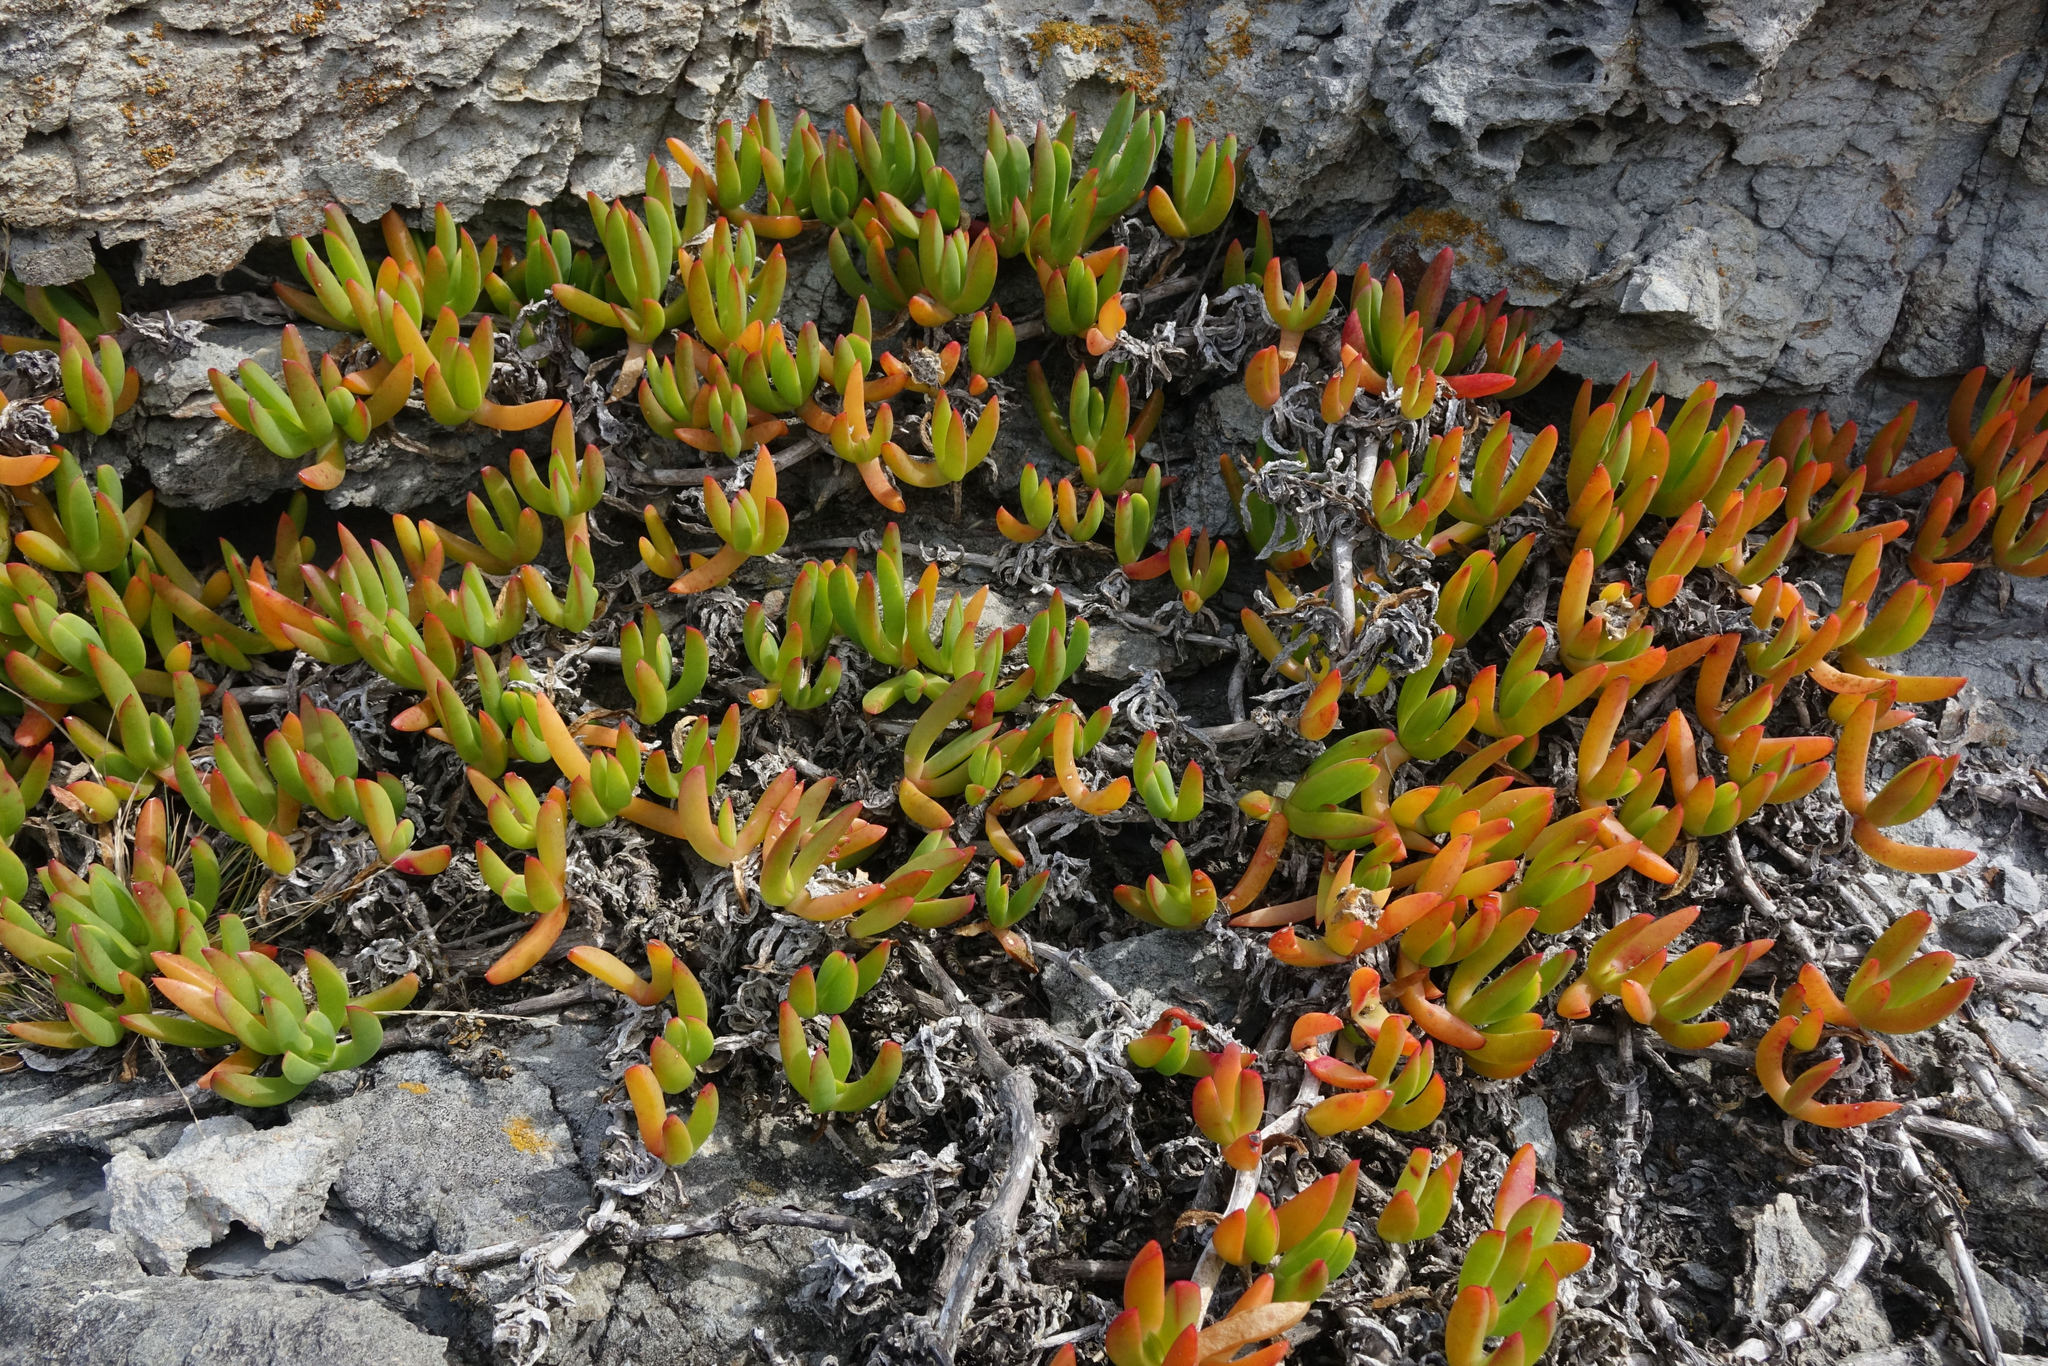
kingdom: Plantae
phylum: Tracheophyta
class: Magnoliopsida
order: Caryophyllales
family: Aizoaceae
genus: Disphyma
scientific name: Disphyma australe
